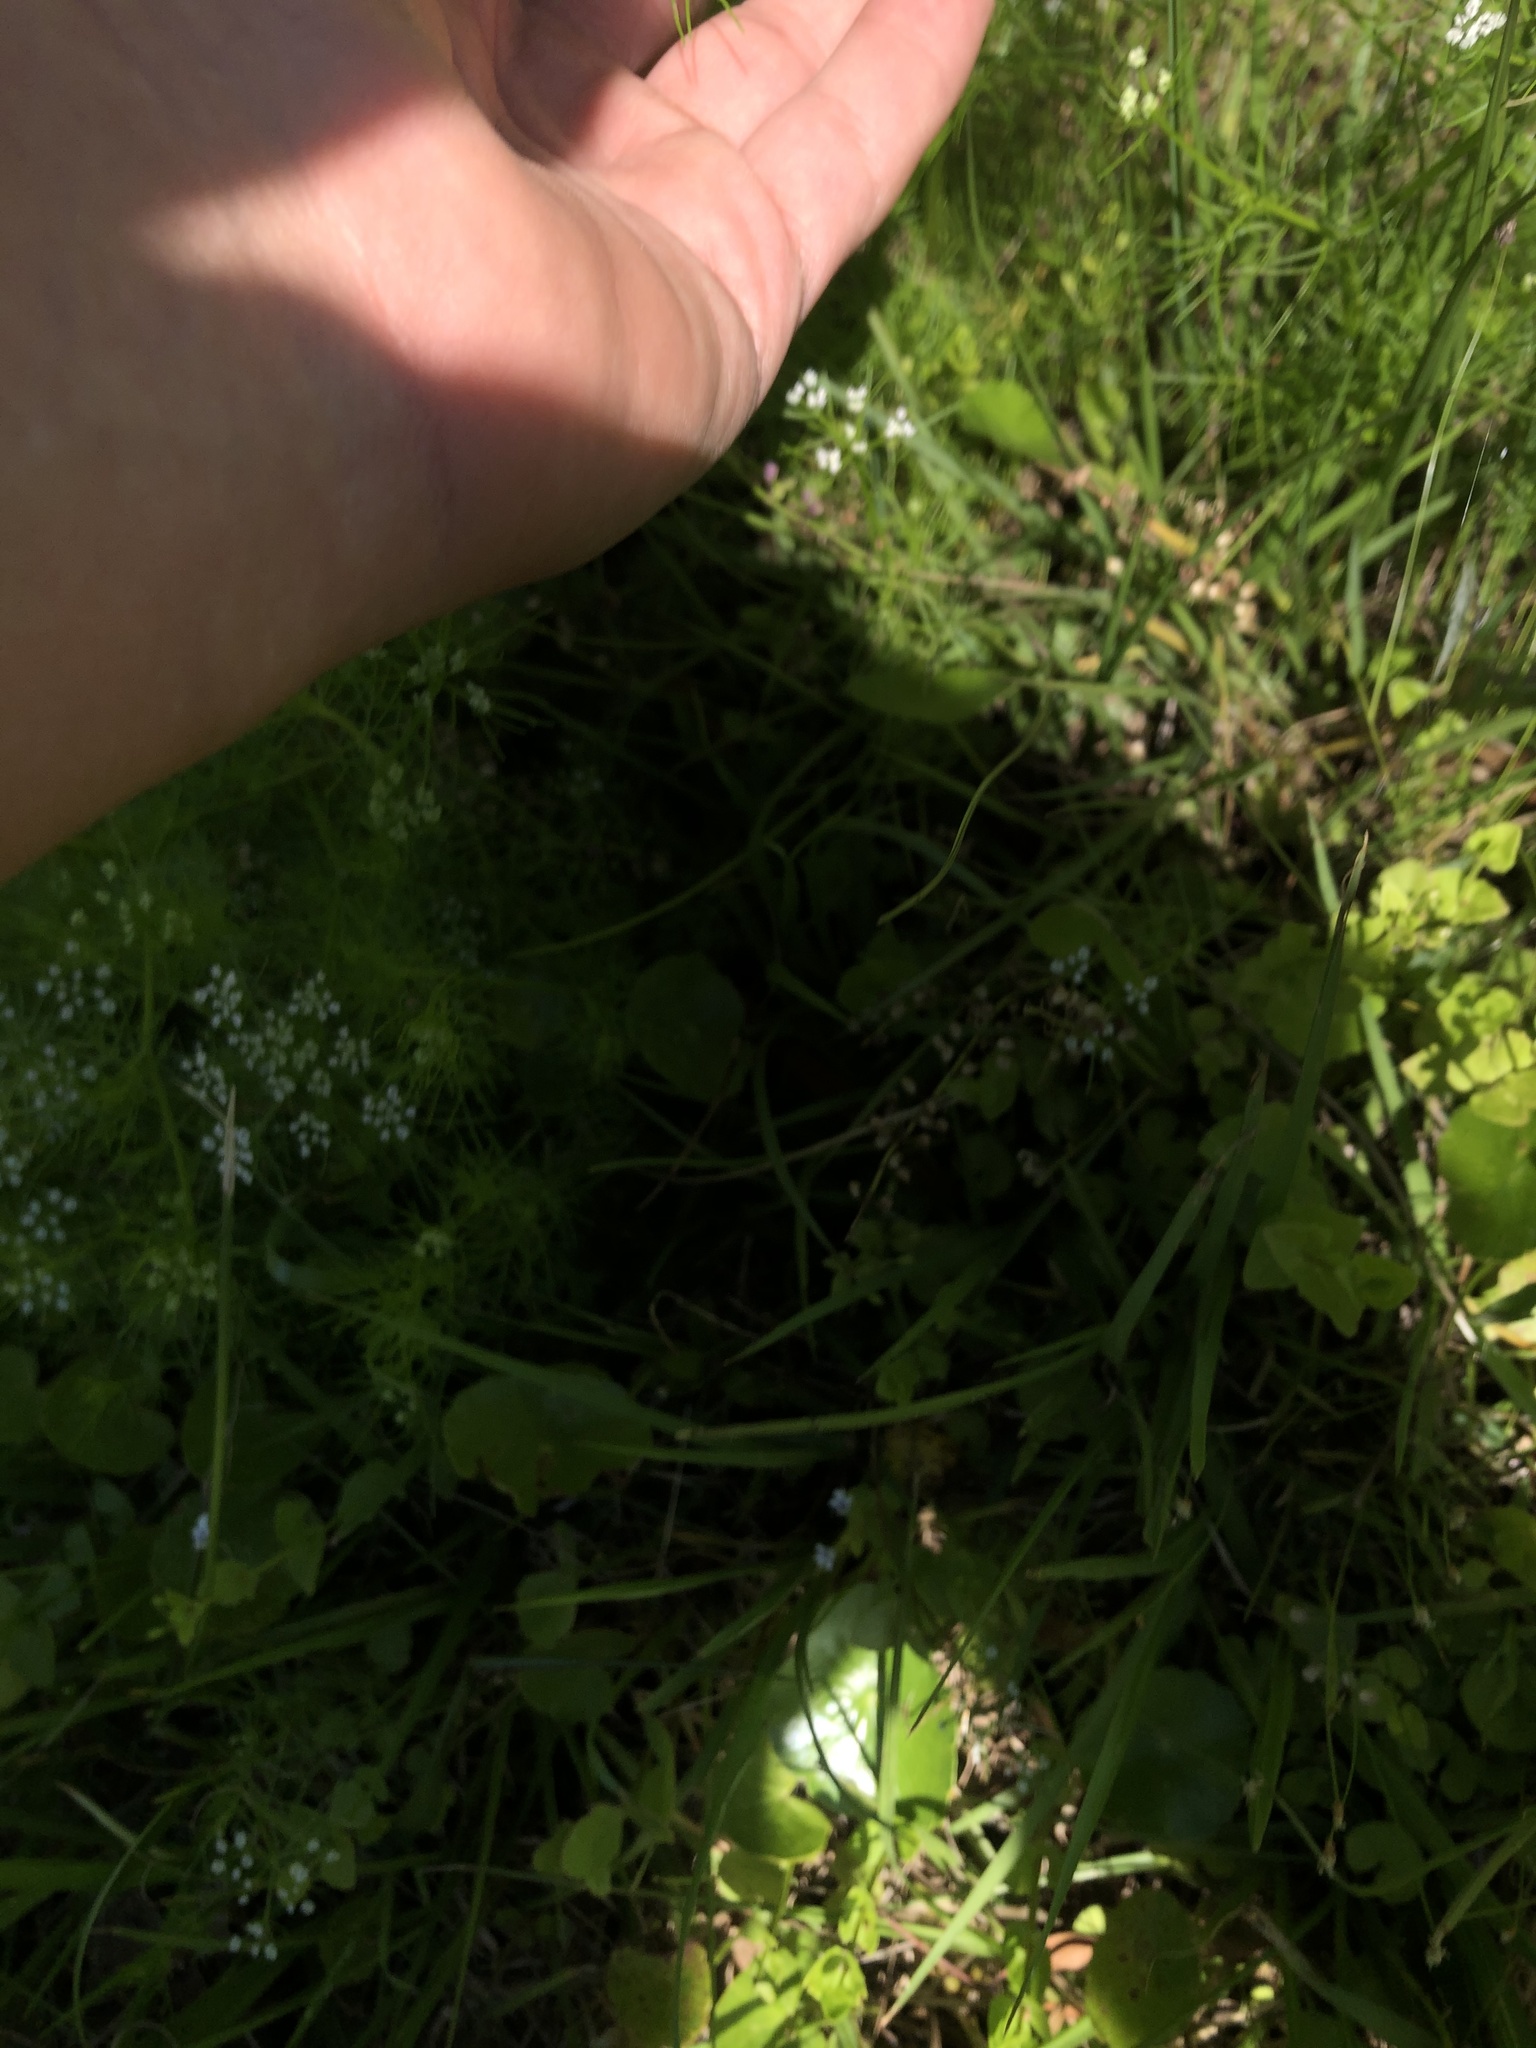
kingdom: Plantae
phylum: Tracheophyta
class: Magnoliopsida
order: Apiales
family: Apiaceae
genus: Ptilimnium
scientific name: Ptilimnium capillaceum
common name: Herbwilliam
